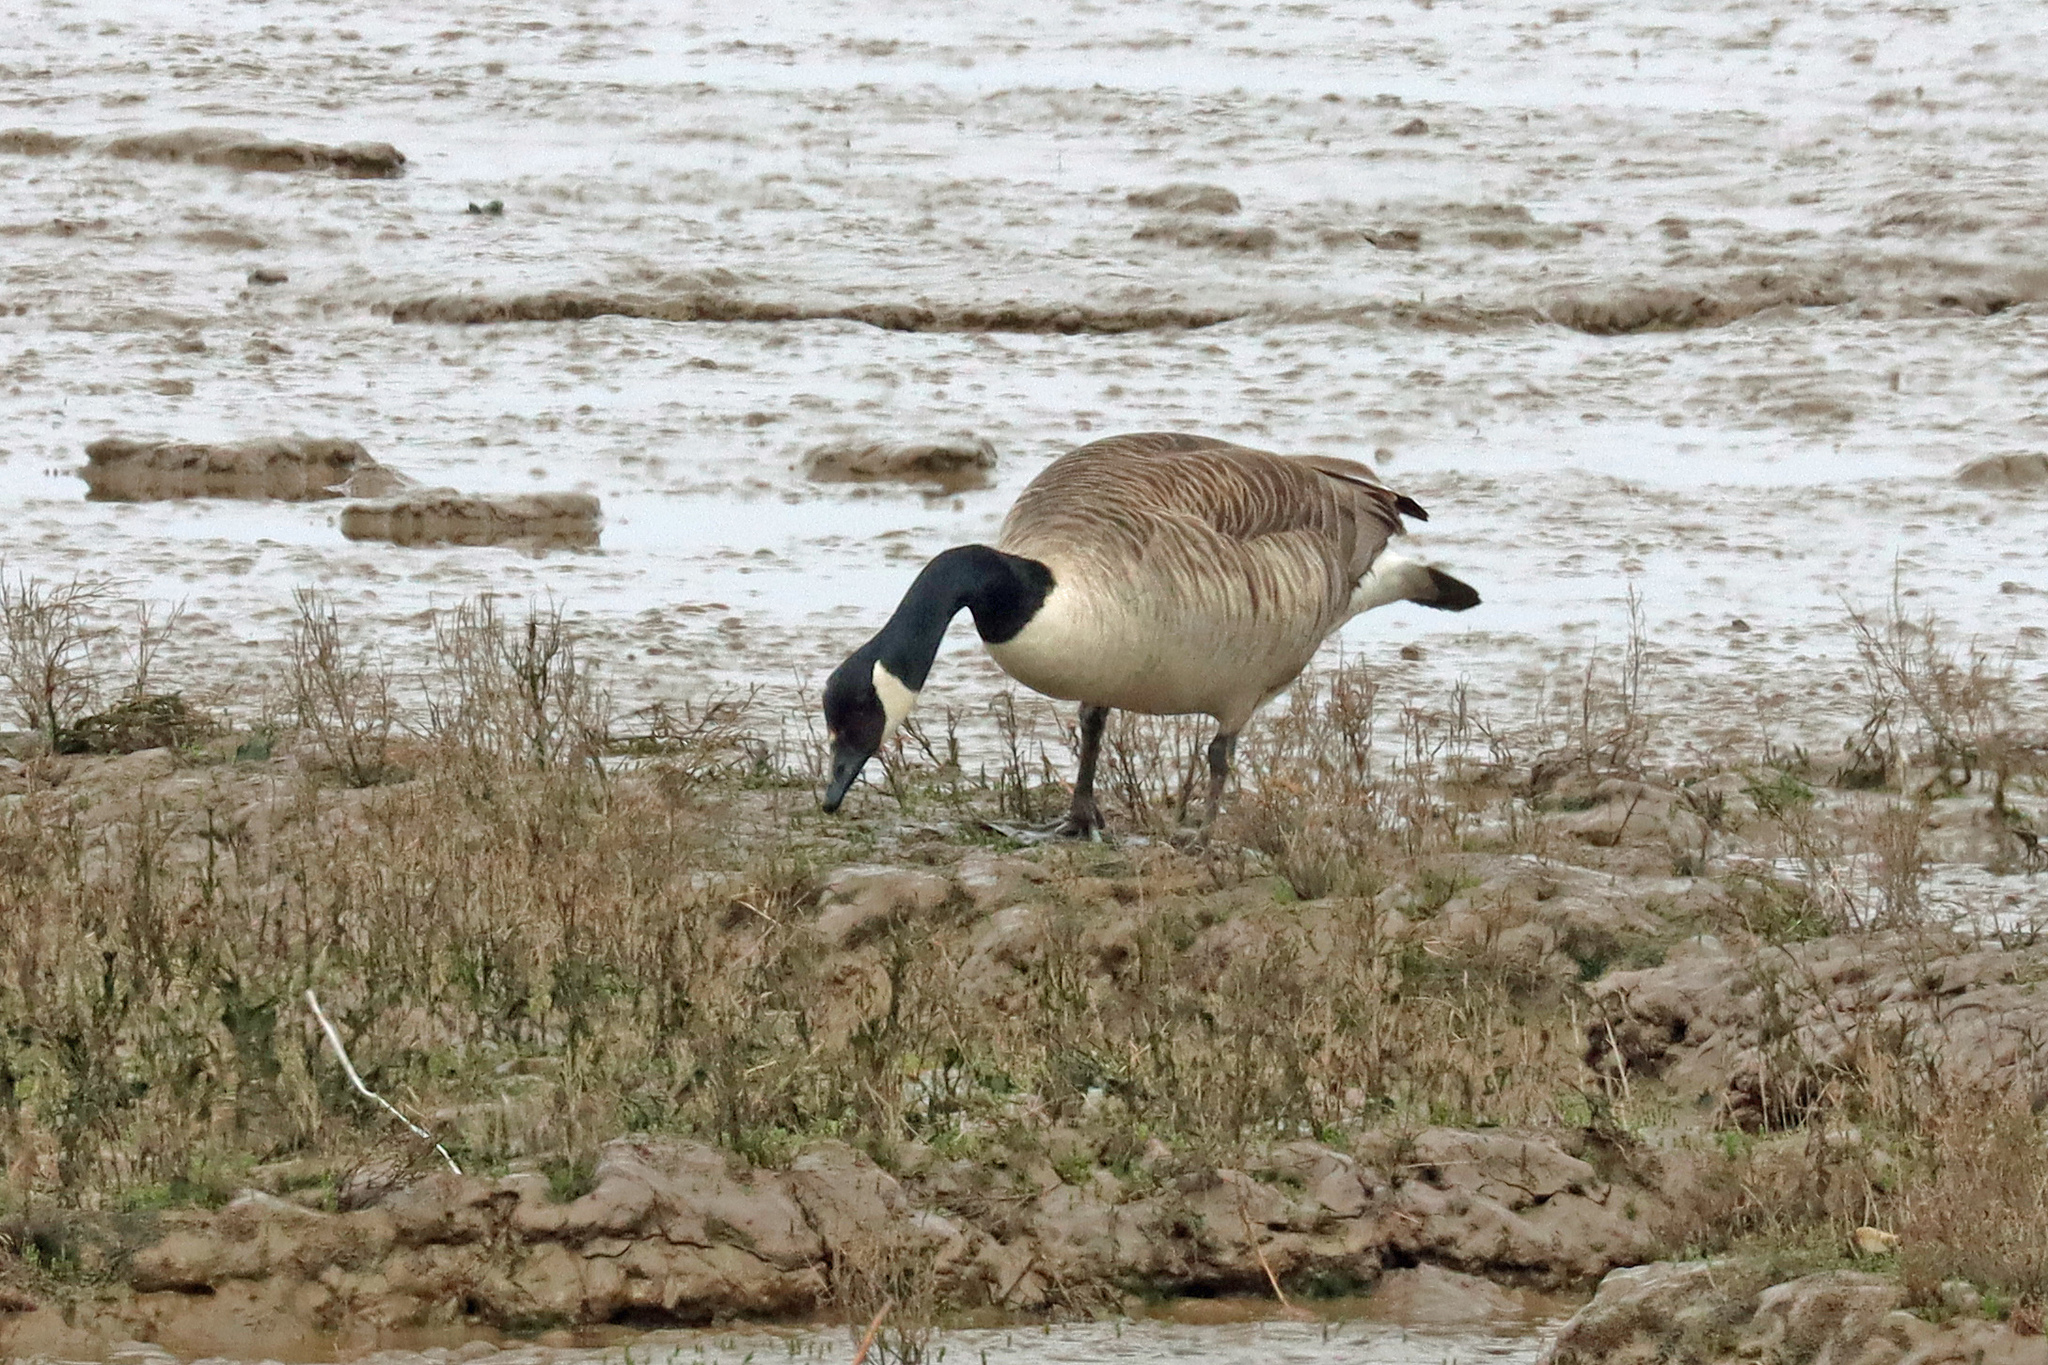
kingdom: Animalia
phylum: Chordata
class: Aves
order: Anseriformes
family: Anatidae
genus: Branta
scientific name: Branta canadensis
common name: Canada goose
